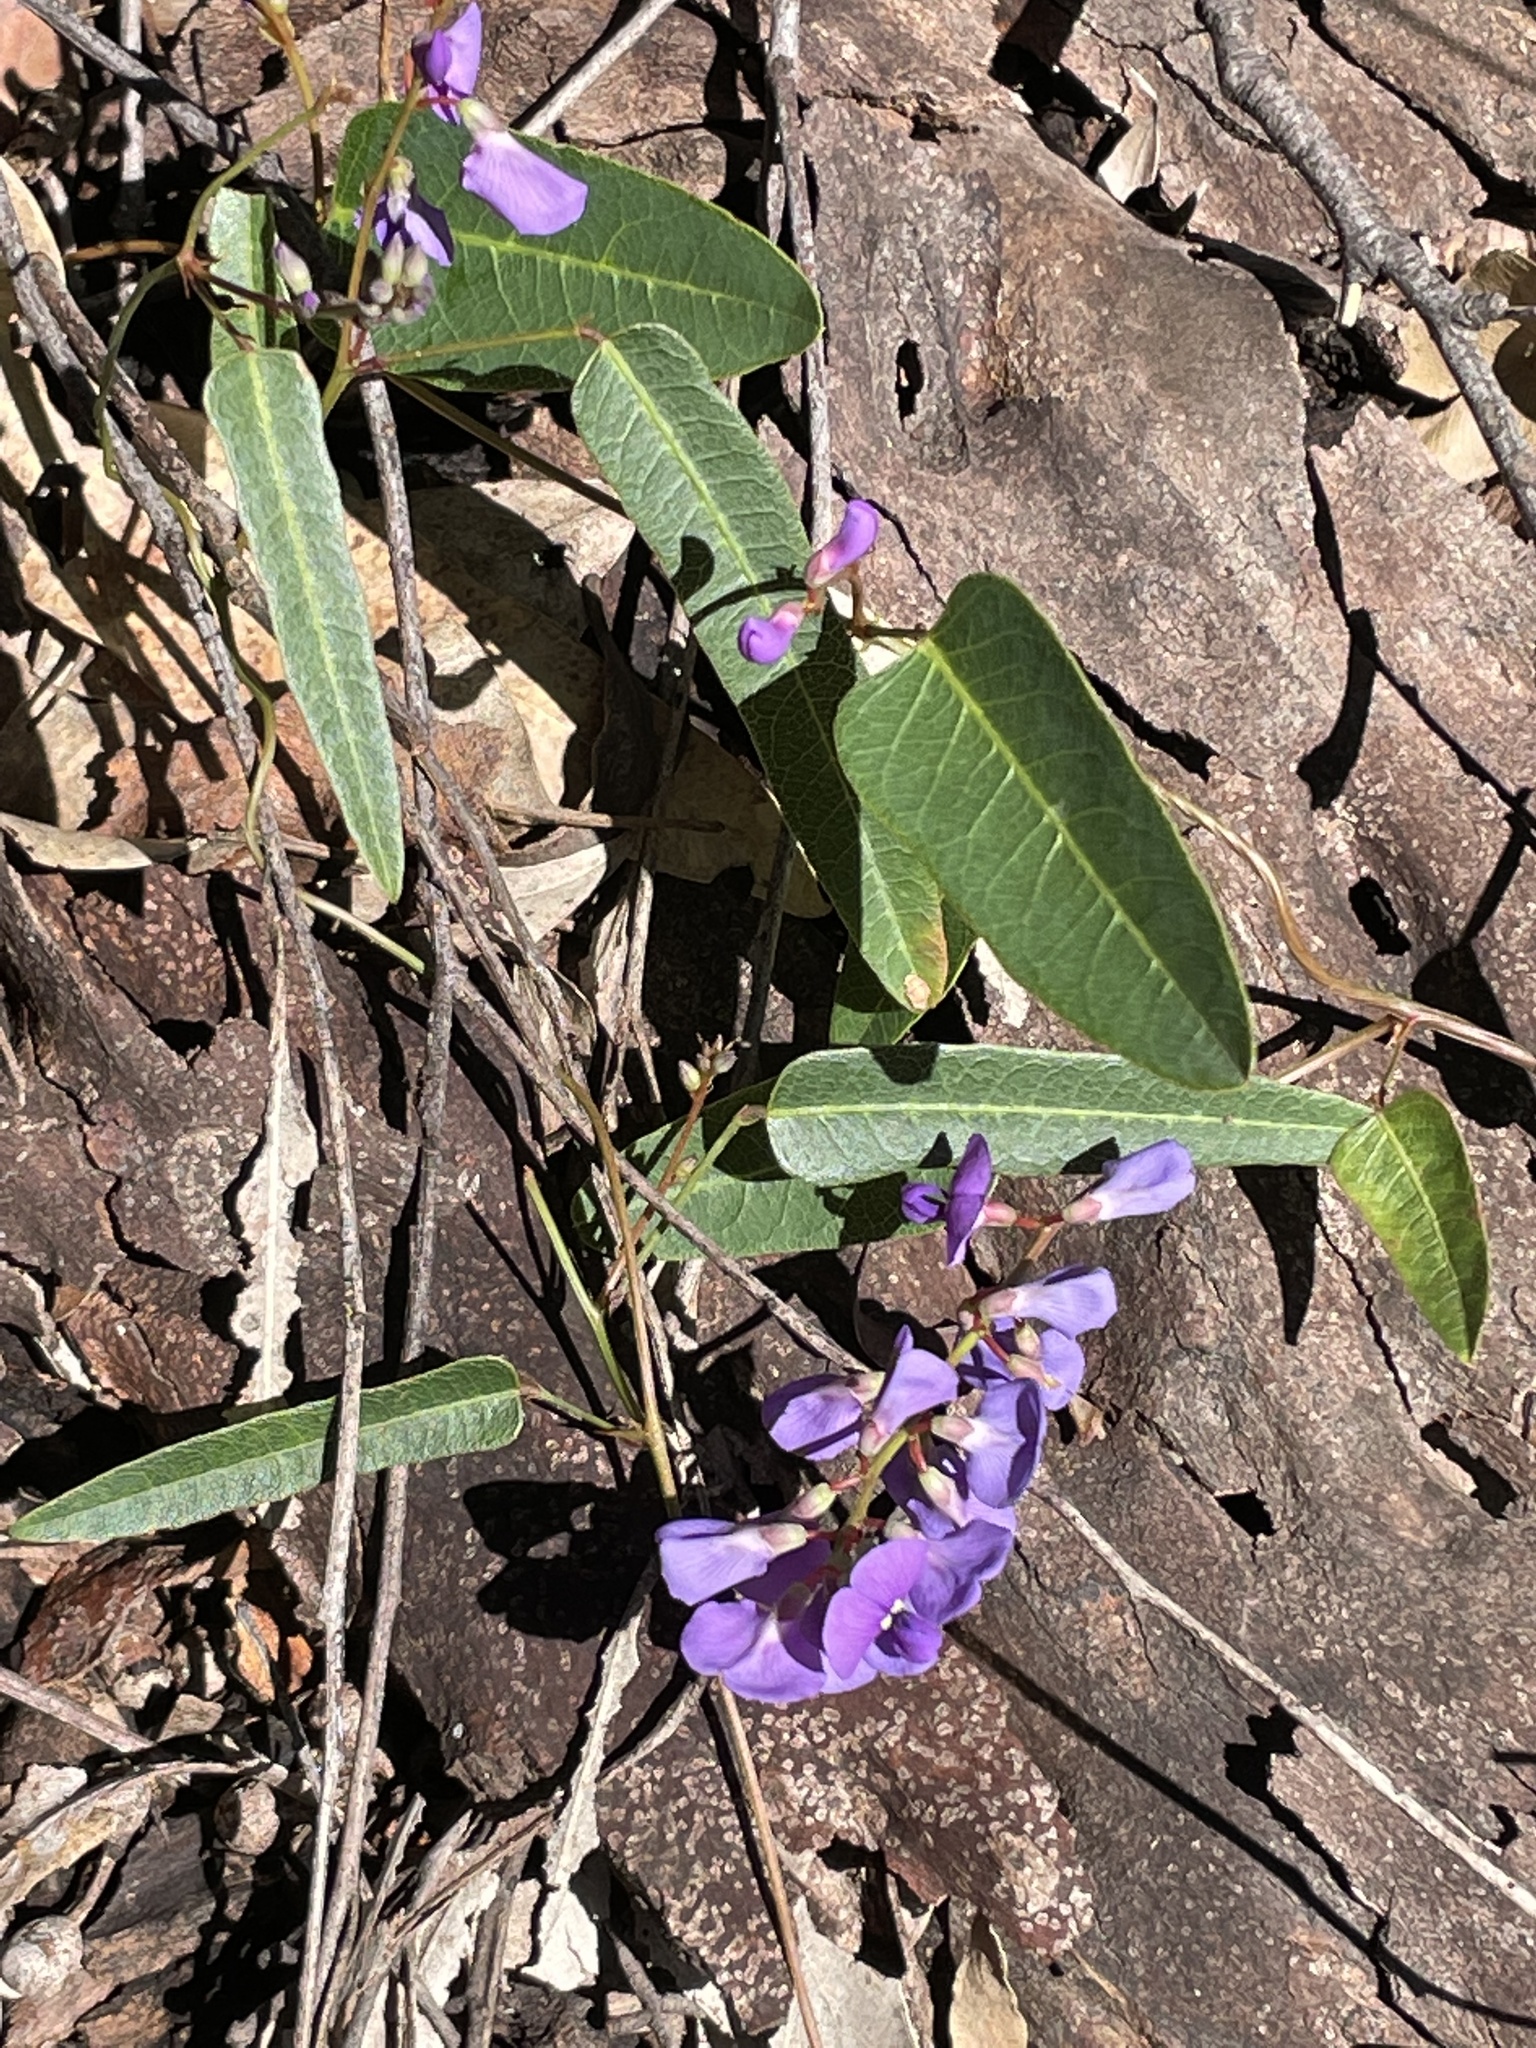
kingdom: Plantae
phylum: Tracheophyta
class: Magnoliopsida
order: Fabales
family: Fabaceae
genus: Hardenbergia
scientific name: Hardenbergia violacea
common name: Coral-pea
